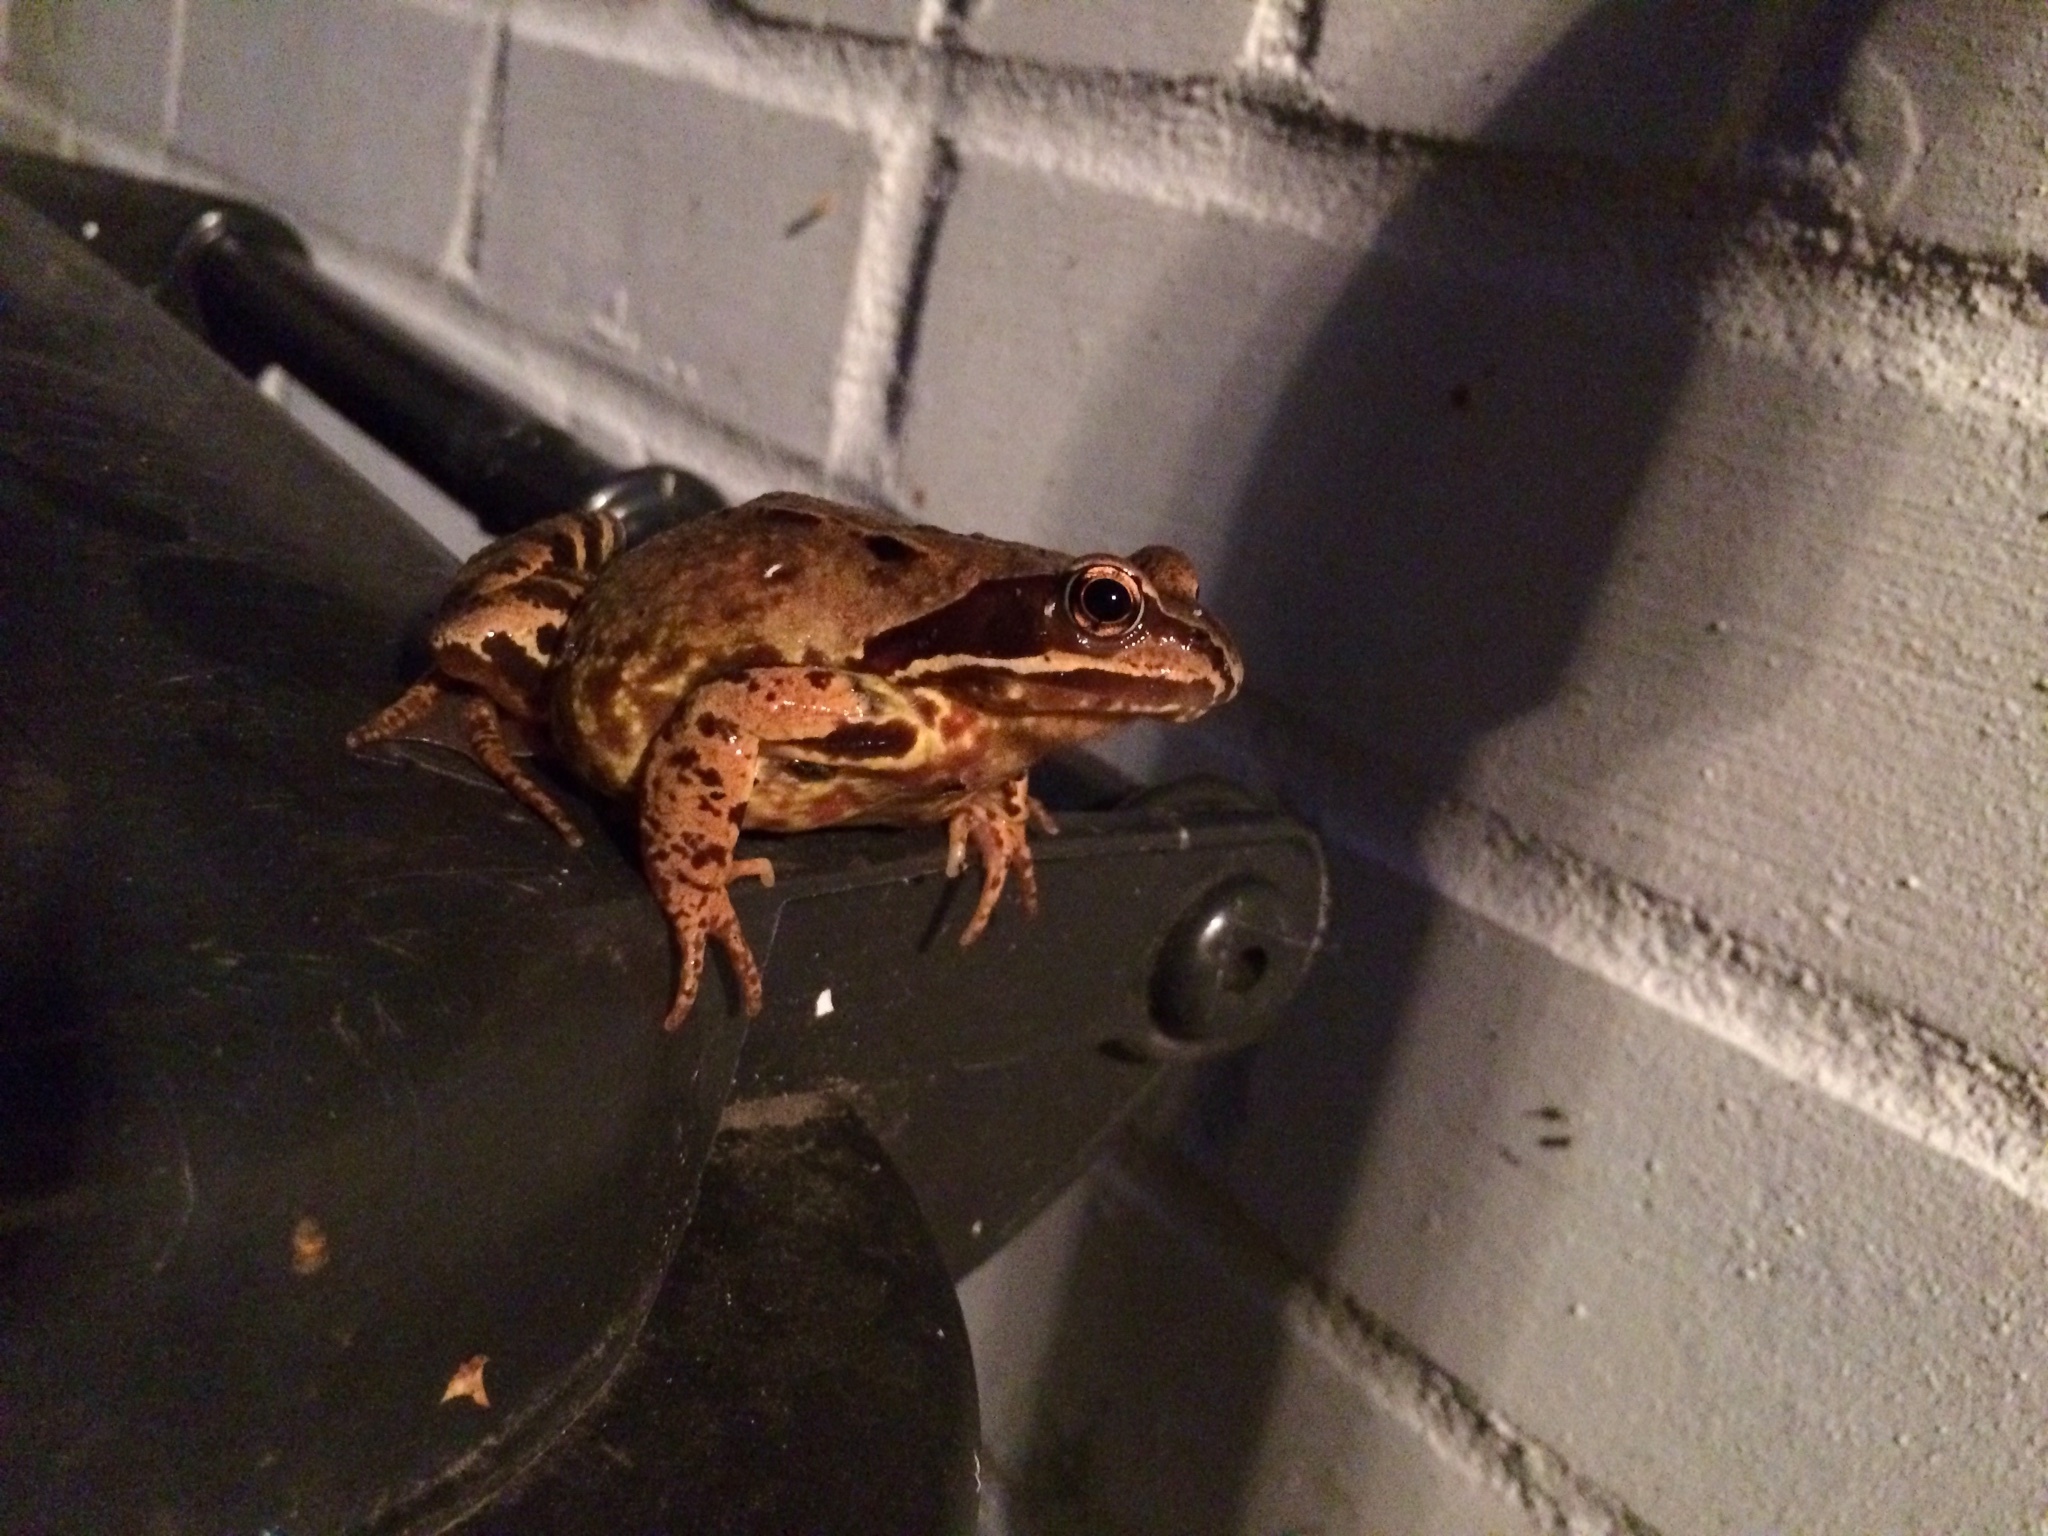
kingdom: Animalia
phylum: Chordata
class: Amphibia
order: Anura
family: Ranidae
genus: Rana
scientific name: Rana temporaria
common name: Common frog
